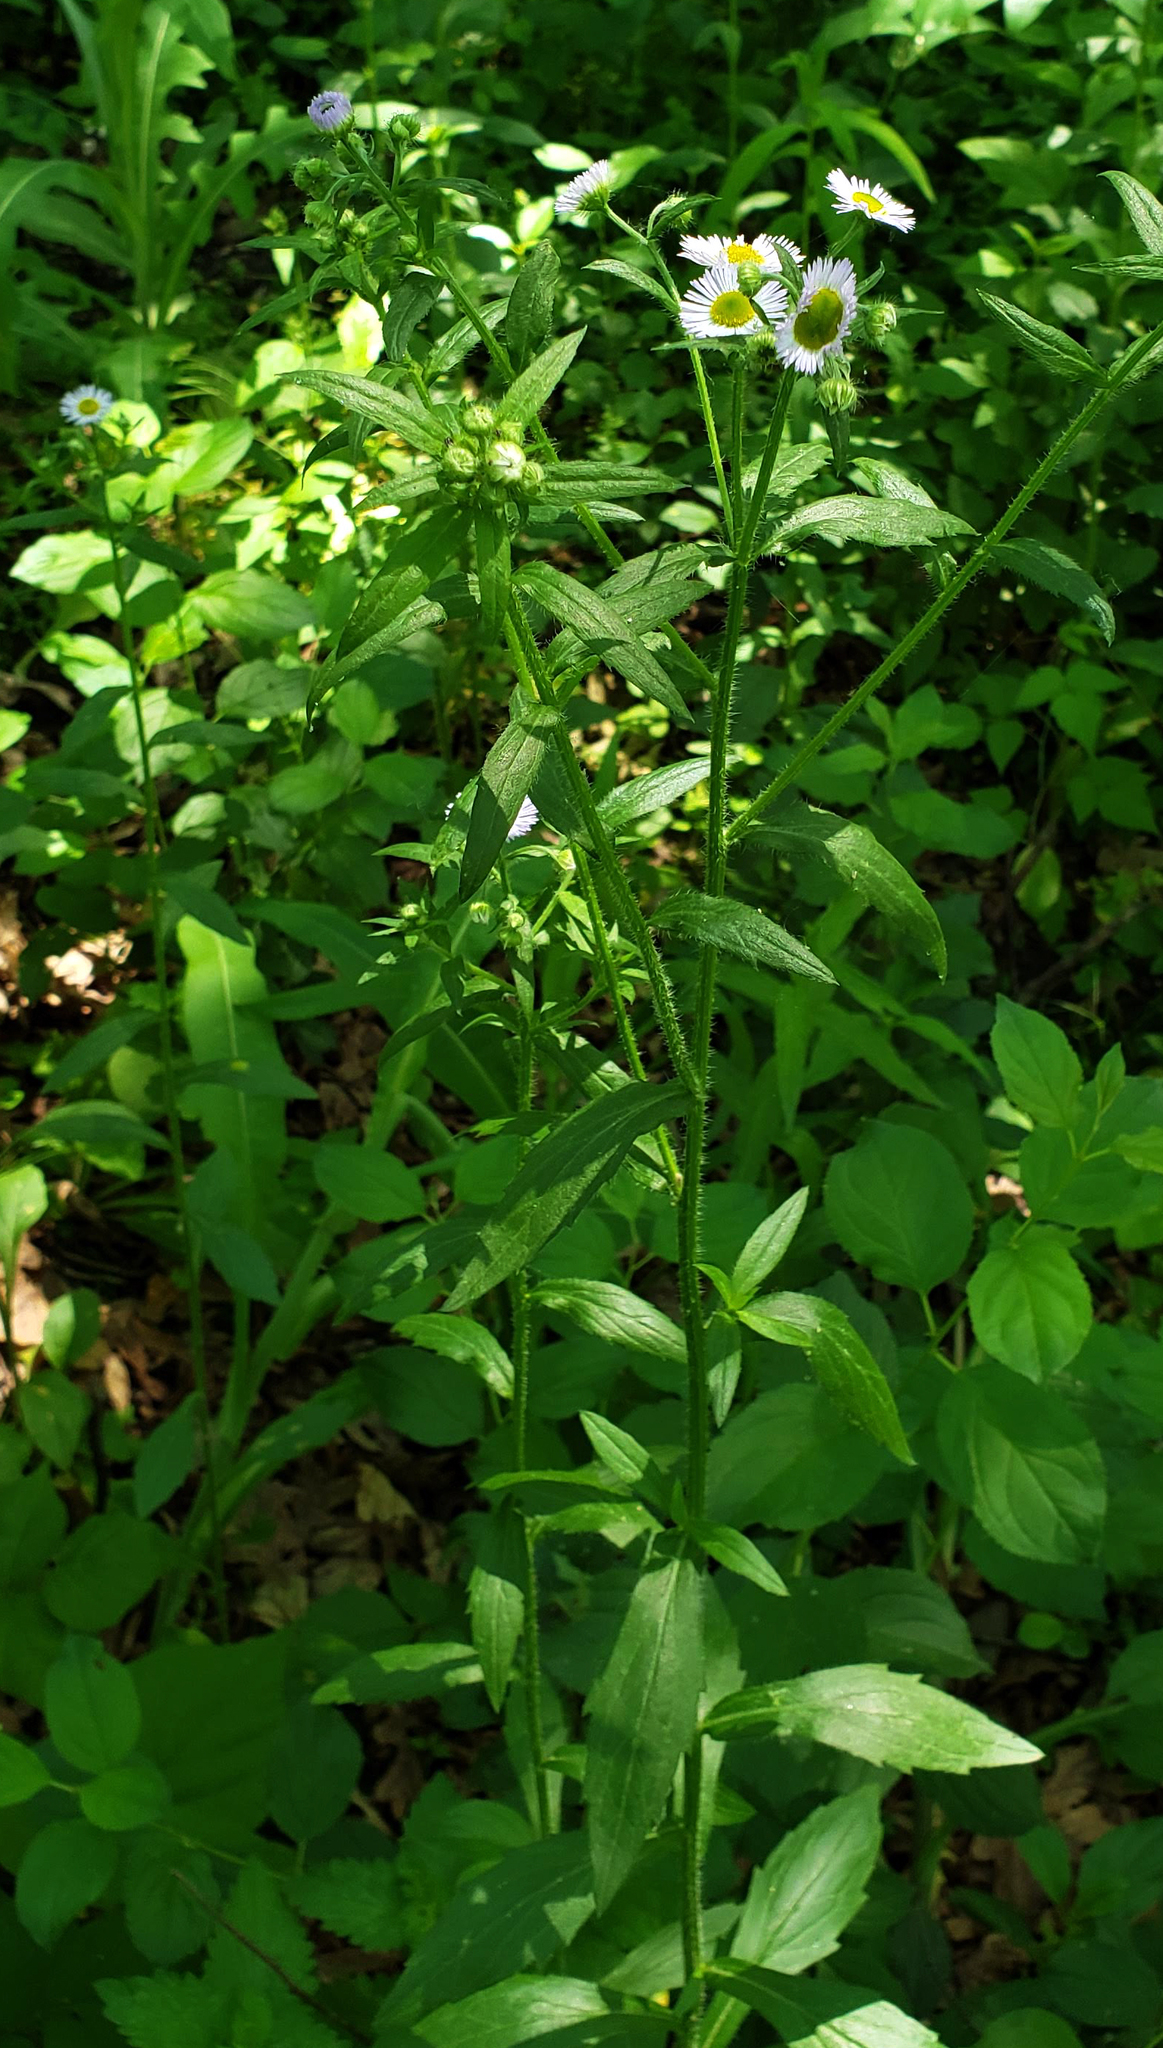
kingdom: Plantae
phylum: Tracheophyta
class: Magnoliopsida
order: Asterales
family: Asteraceae
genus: Erigeron
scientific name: Erigeron annuus
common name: Tall fleabane
